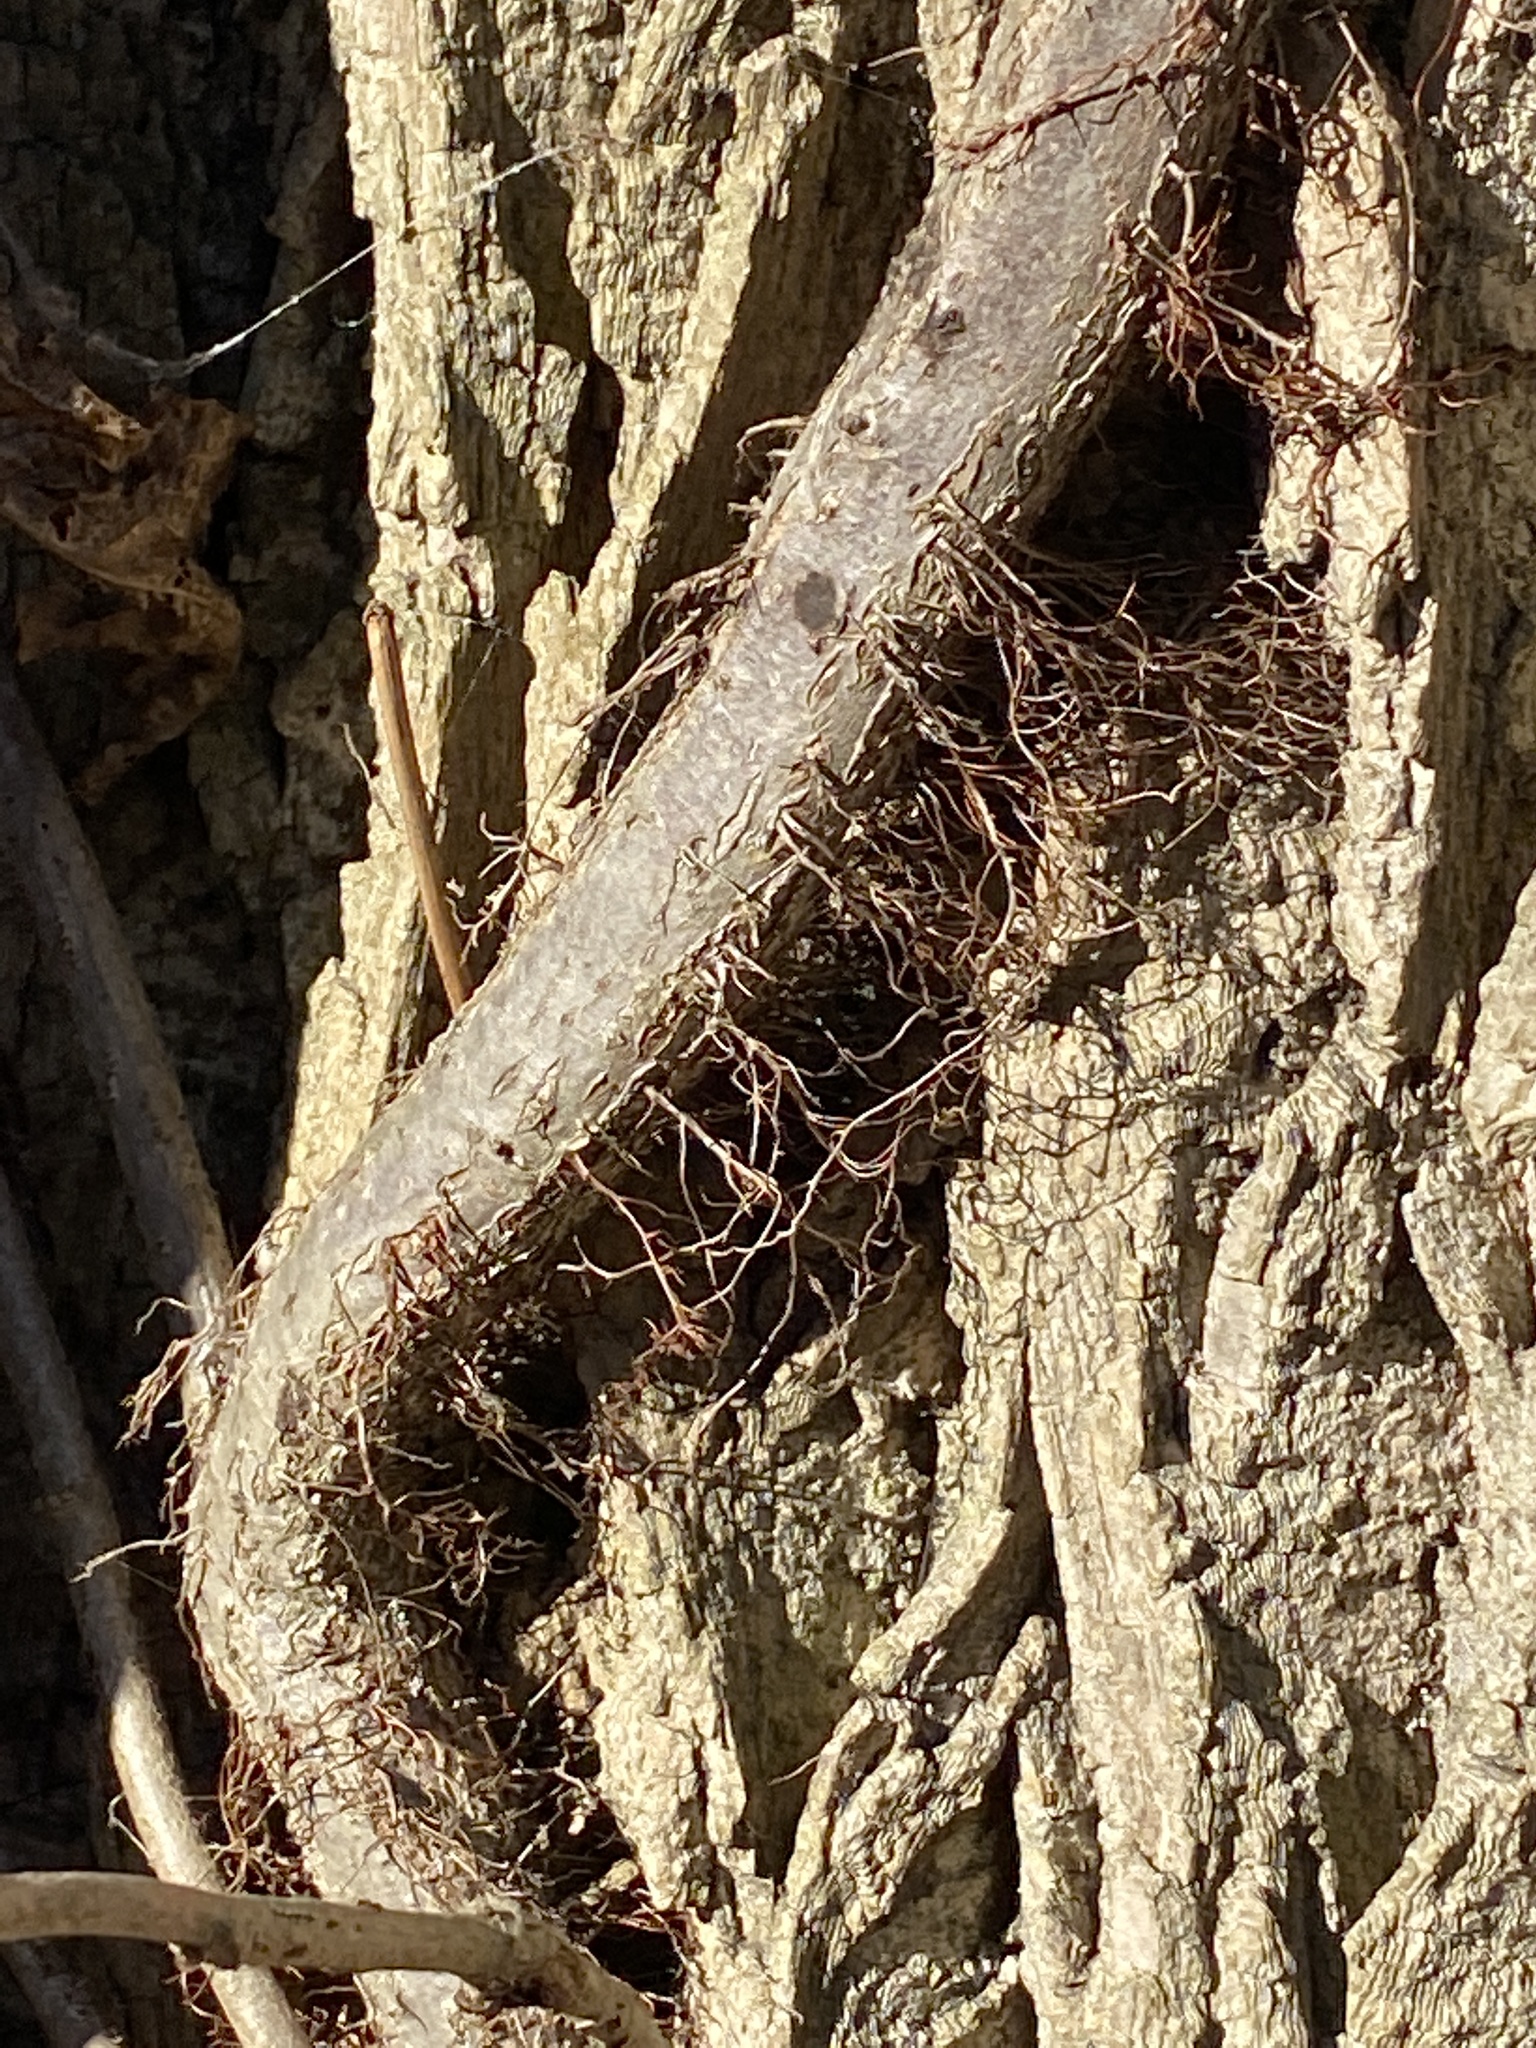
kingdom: Plantae
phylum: Tracheophyta
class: Magnoliopsida
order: Sapindales
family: Anacardiaceae
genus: Toxicodendron
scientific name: Toxicodendron radicans
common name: Poison ivy
